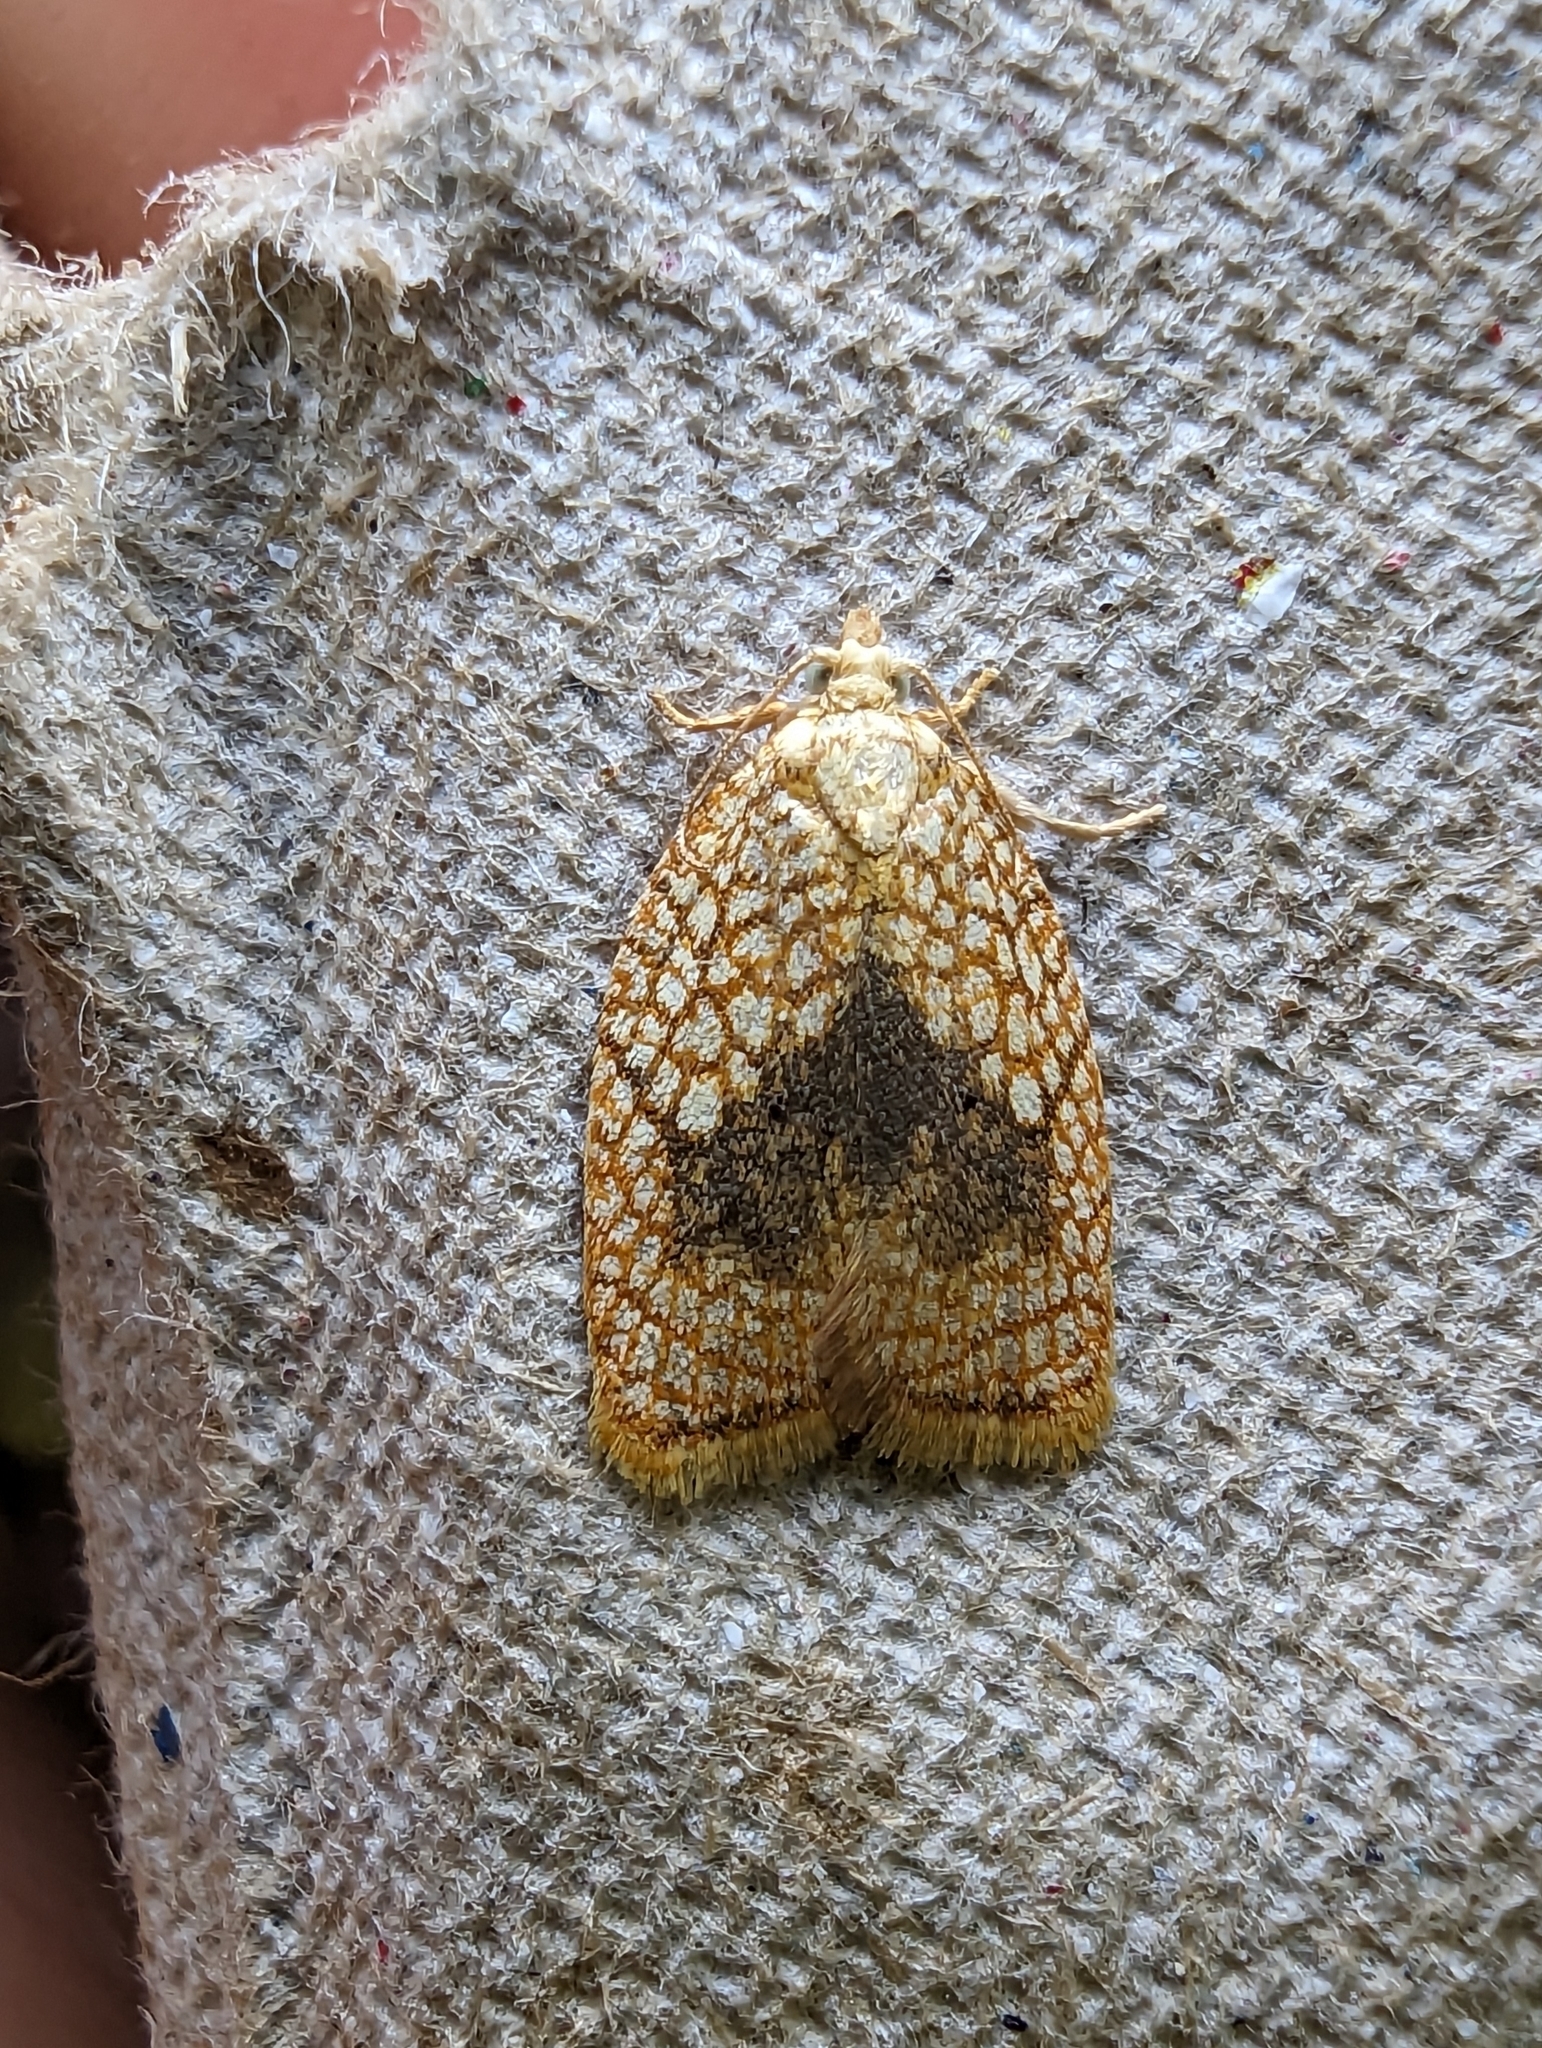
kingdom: Animalia
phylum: Arthropoda
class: Insecta
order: Lepidoptera
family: Tortricidae
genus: Acleris
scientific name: Acleris forsskaleana
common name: Maple button
